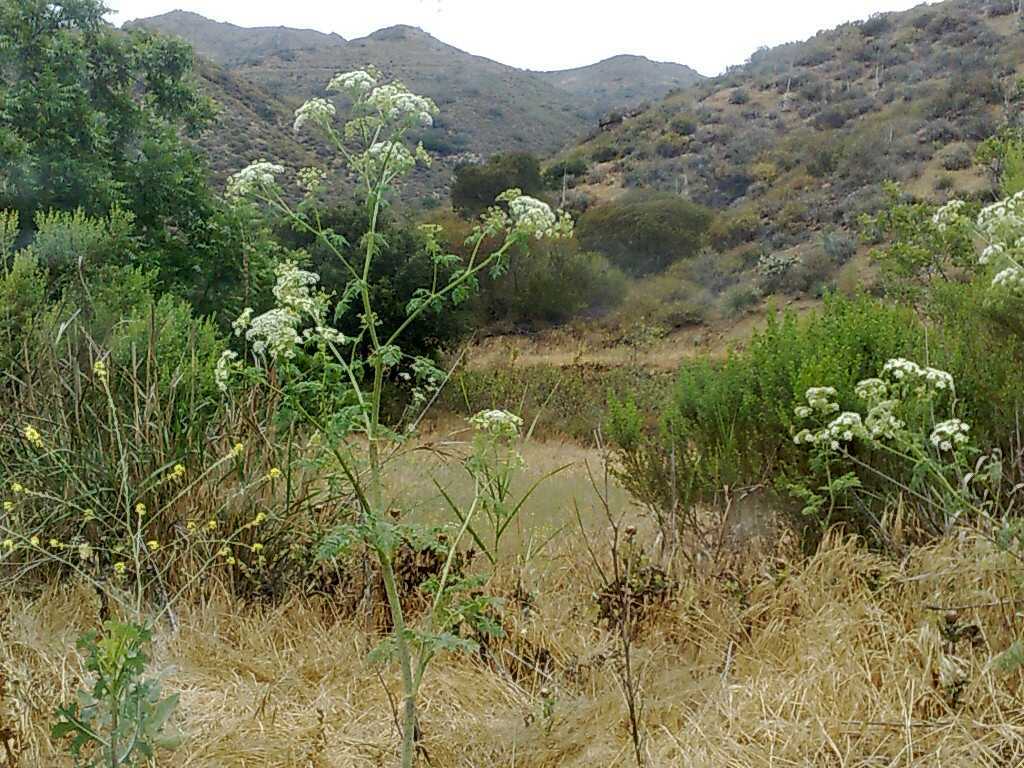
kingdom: Plantae
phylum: Tracheophyta
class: Liliopsida
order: Poales
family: Poaceae
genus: Bromus
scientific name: Bromus diandrus
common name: Ripgut brome
